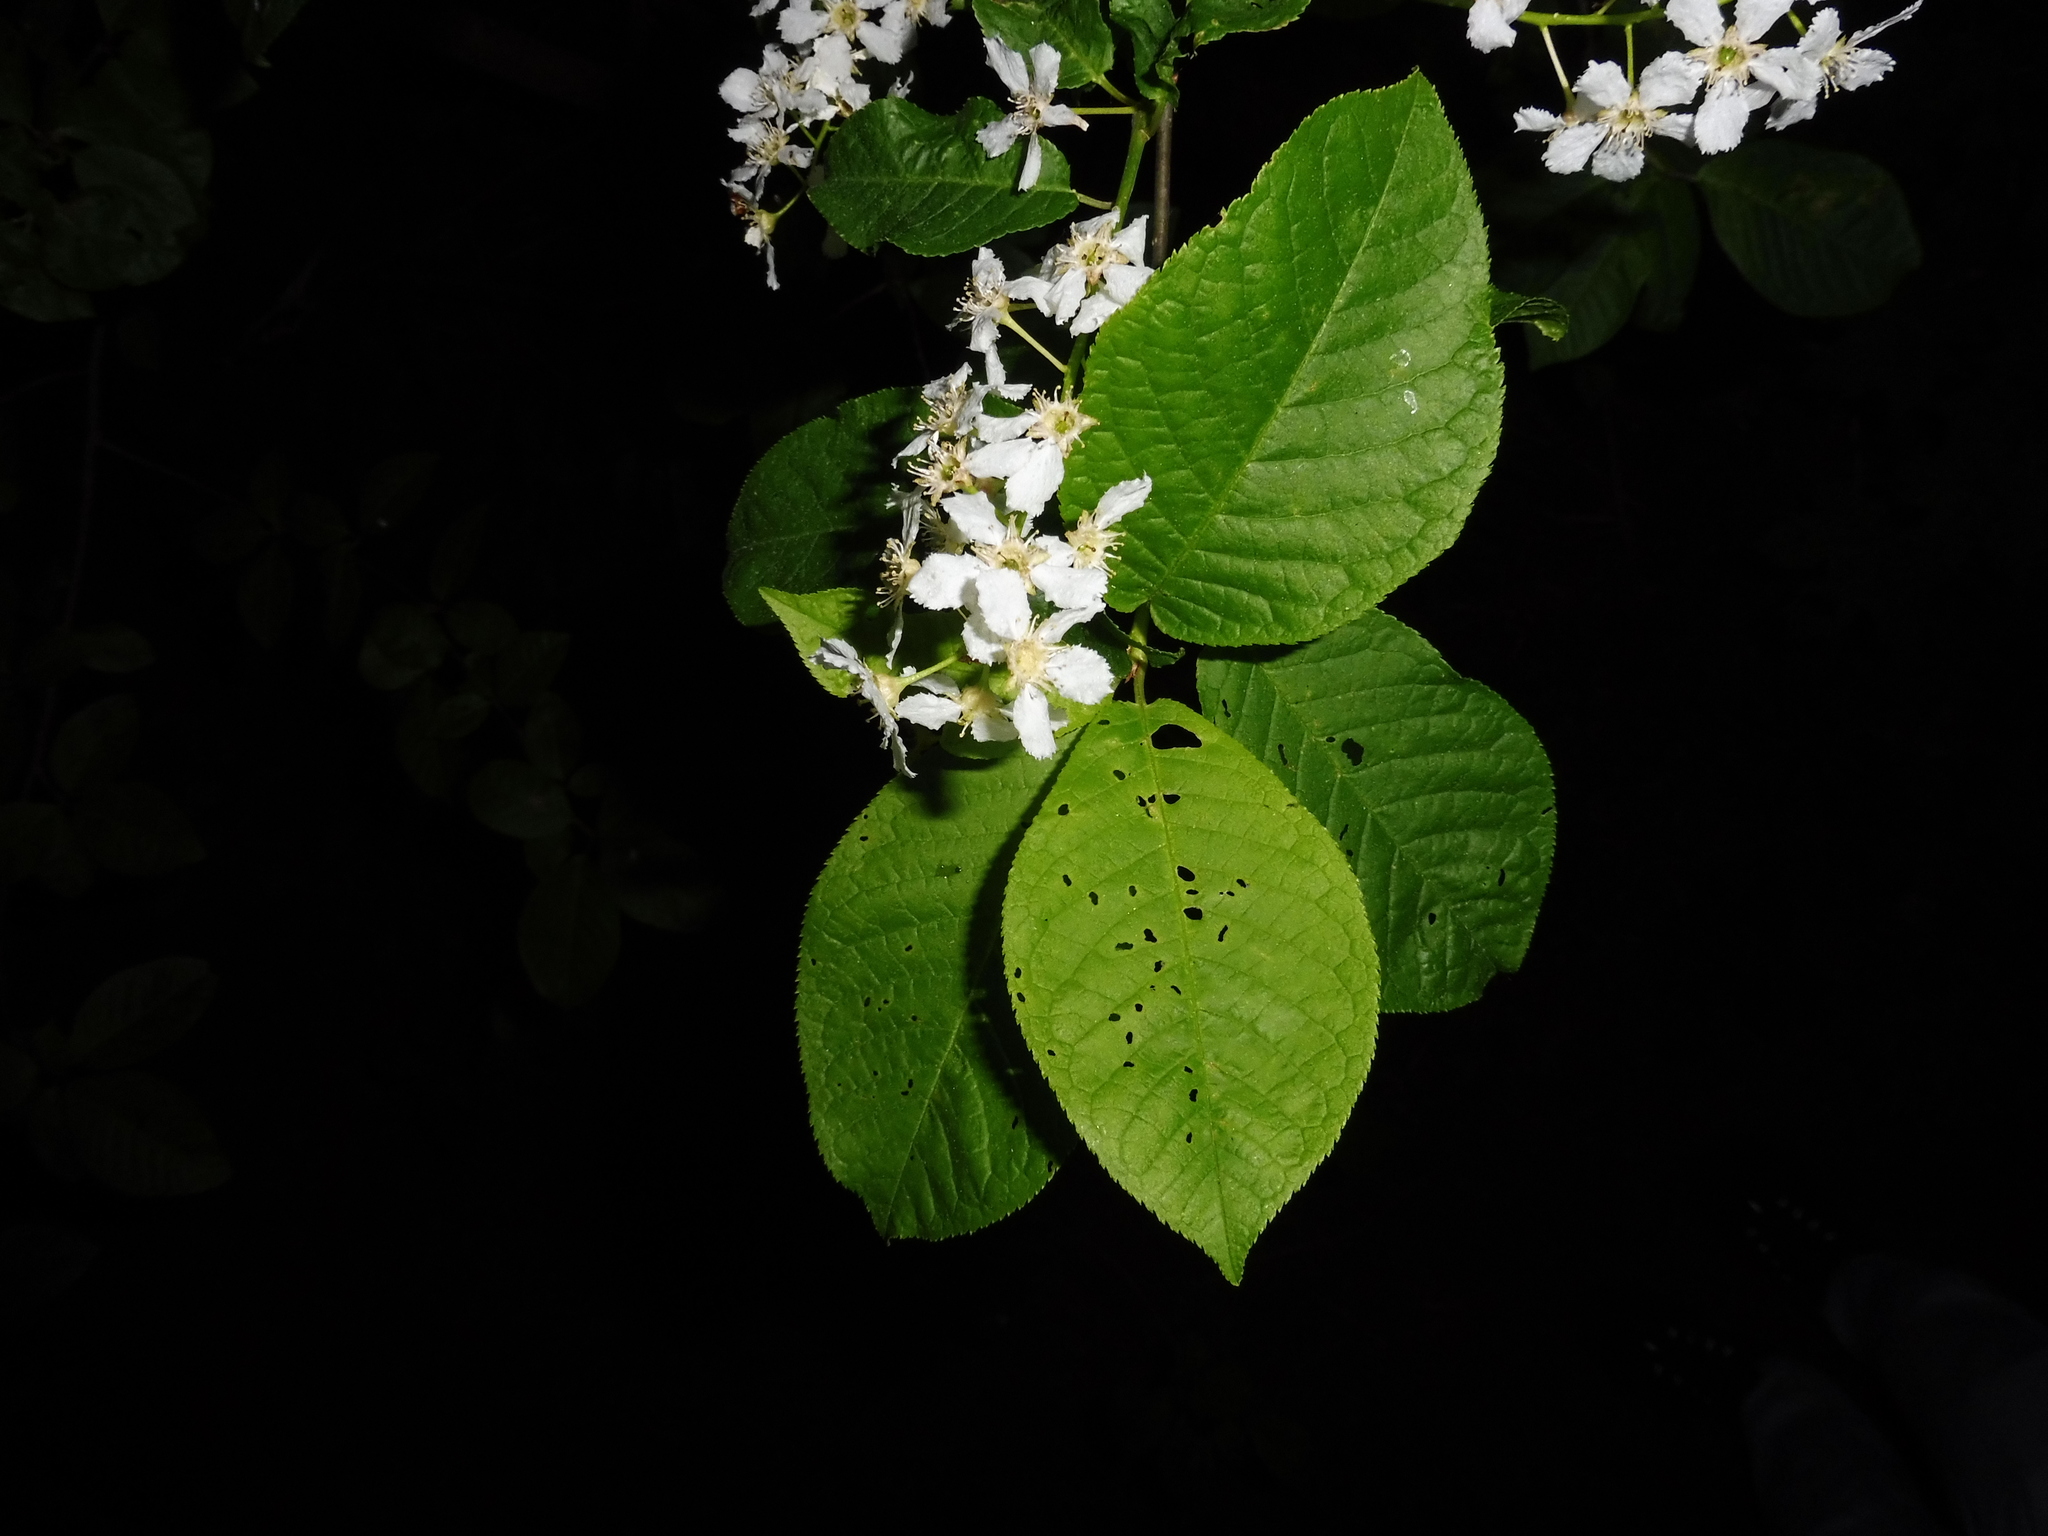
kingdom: Plantae
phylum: Tracheophyta
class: Magnoliopsida
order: Rosales
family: Rosaceae
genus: Prunus
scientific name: Prunus padus
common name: Bird cherry
